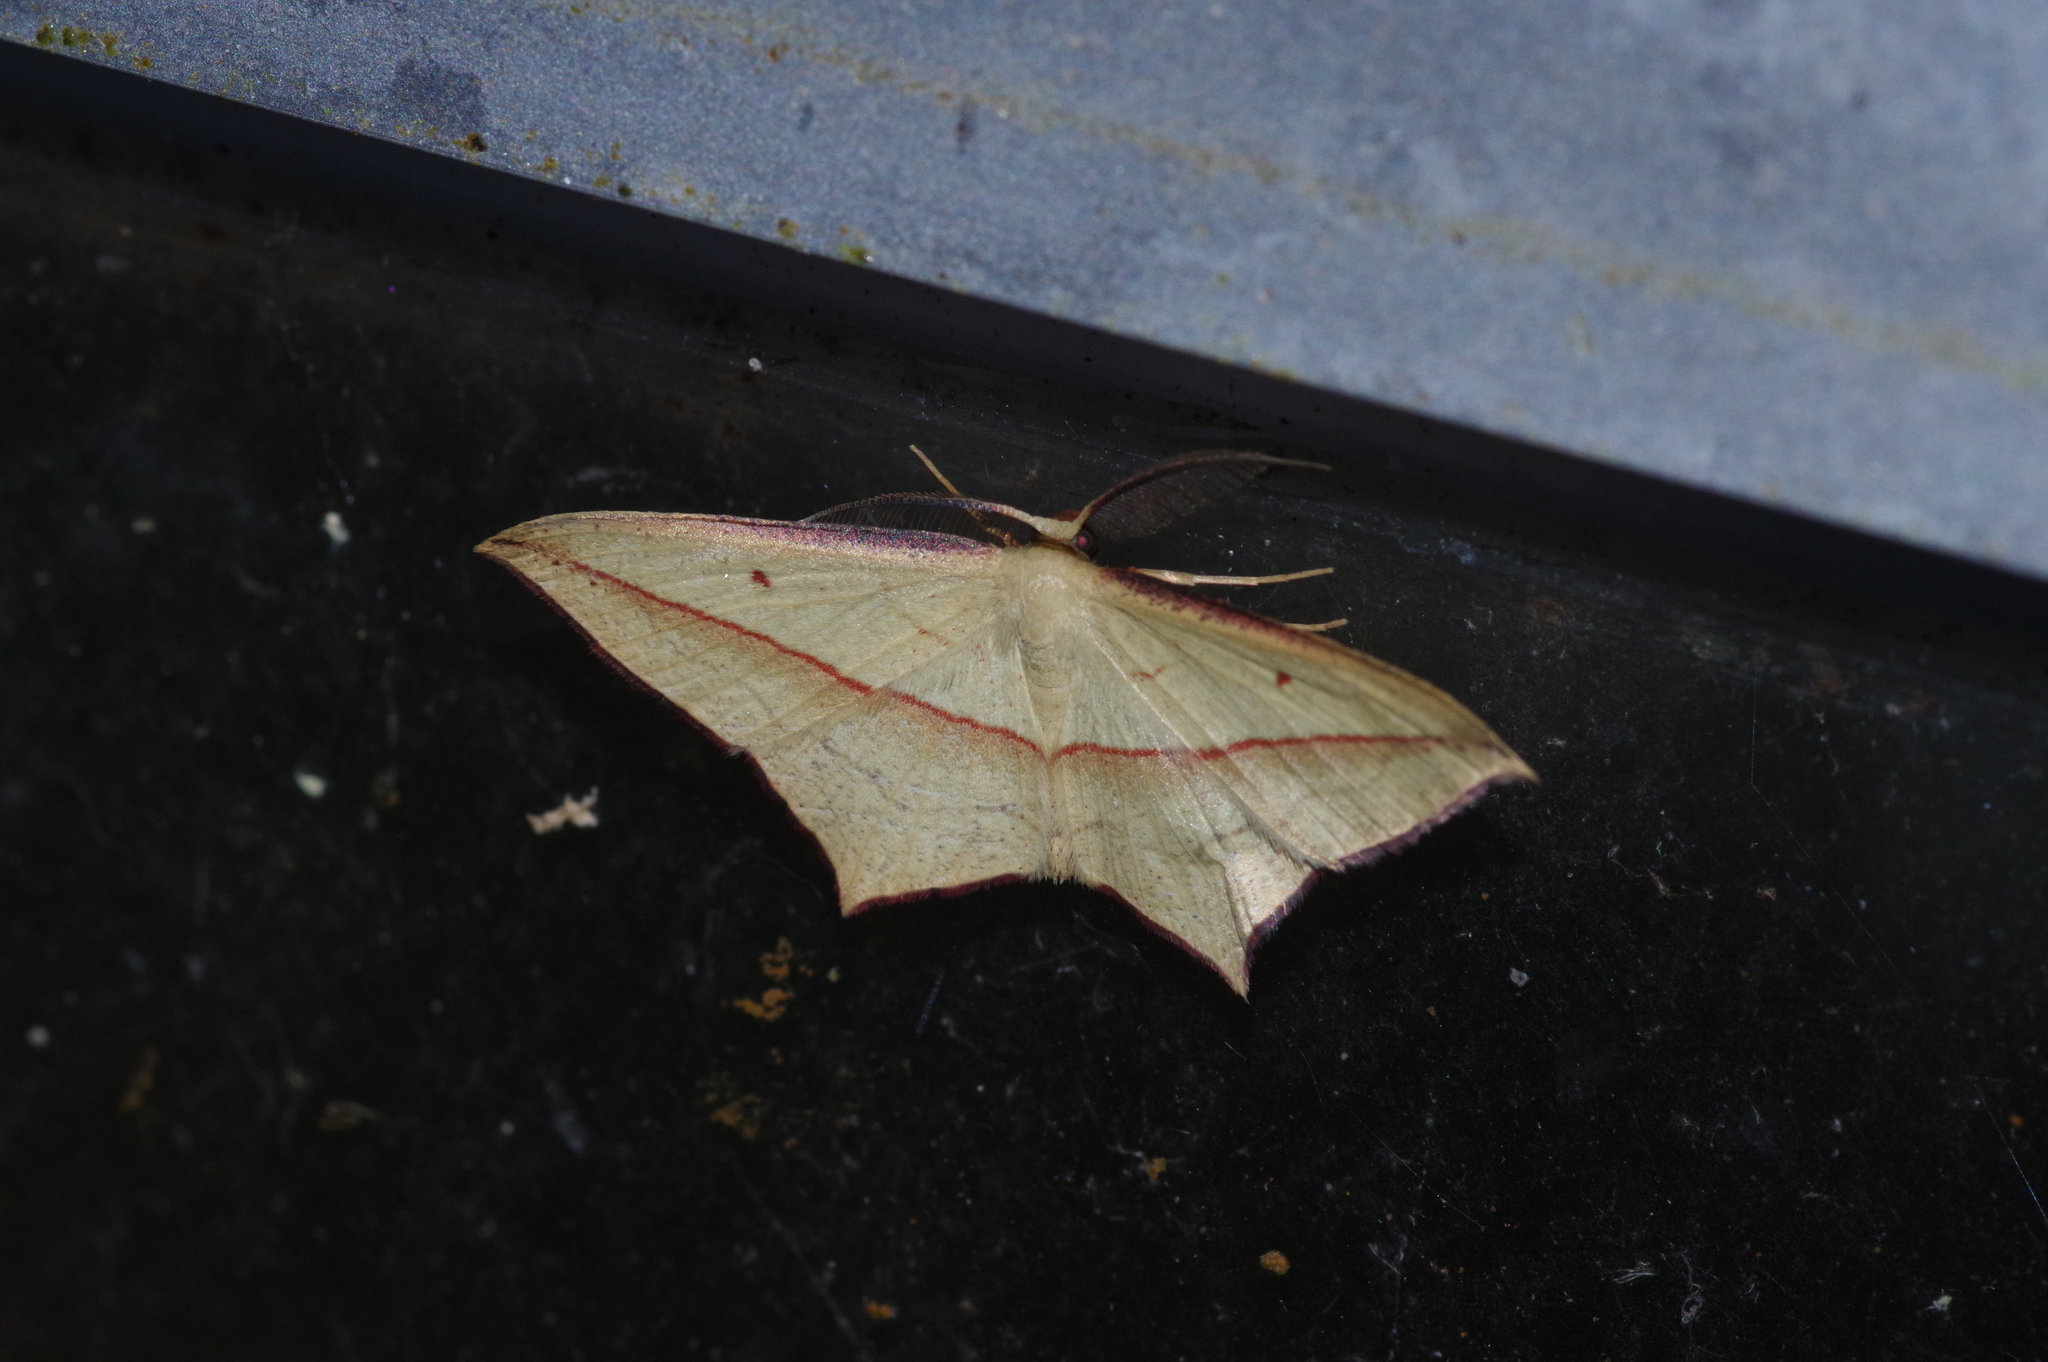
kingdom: Animalia
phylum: Arthropoda
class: Insecta
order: Lepidoptera
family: Geometridae
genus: Timandra
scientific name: Timandra convectaria
